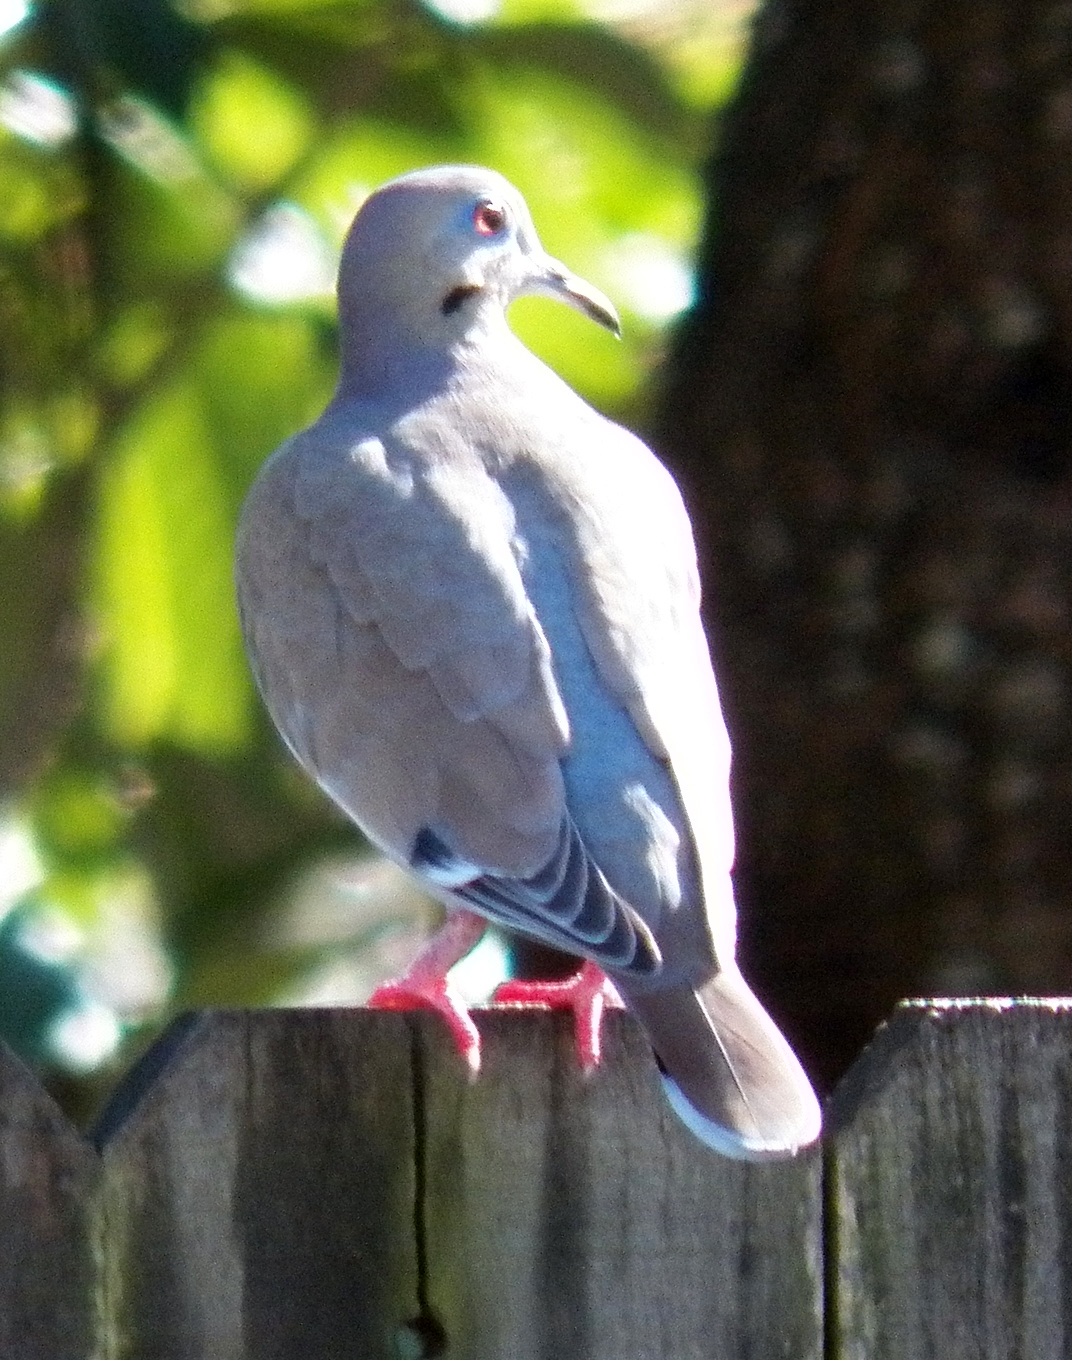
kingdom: Animalia
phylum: Chordata
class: Aves
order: Columbiformes
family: Columbidae
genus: Zenaida
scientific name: Zenaida asiatica
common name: White-winged dove
